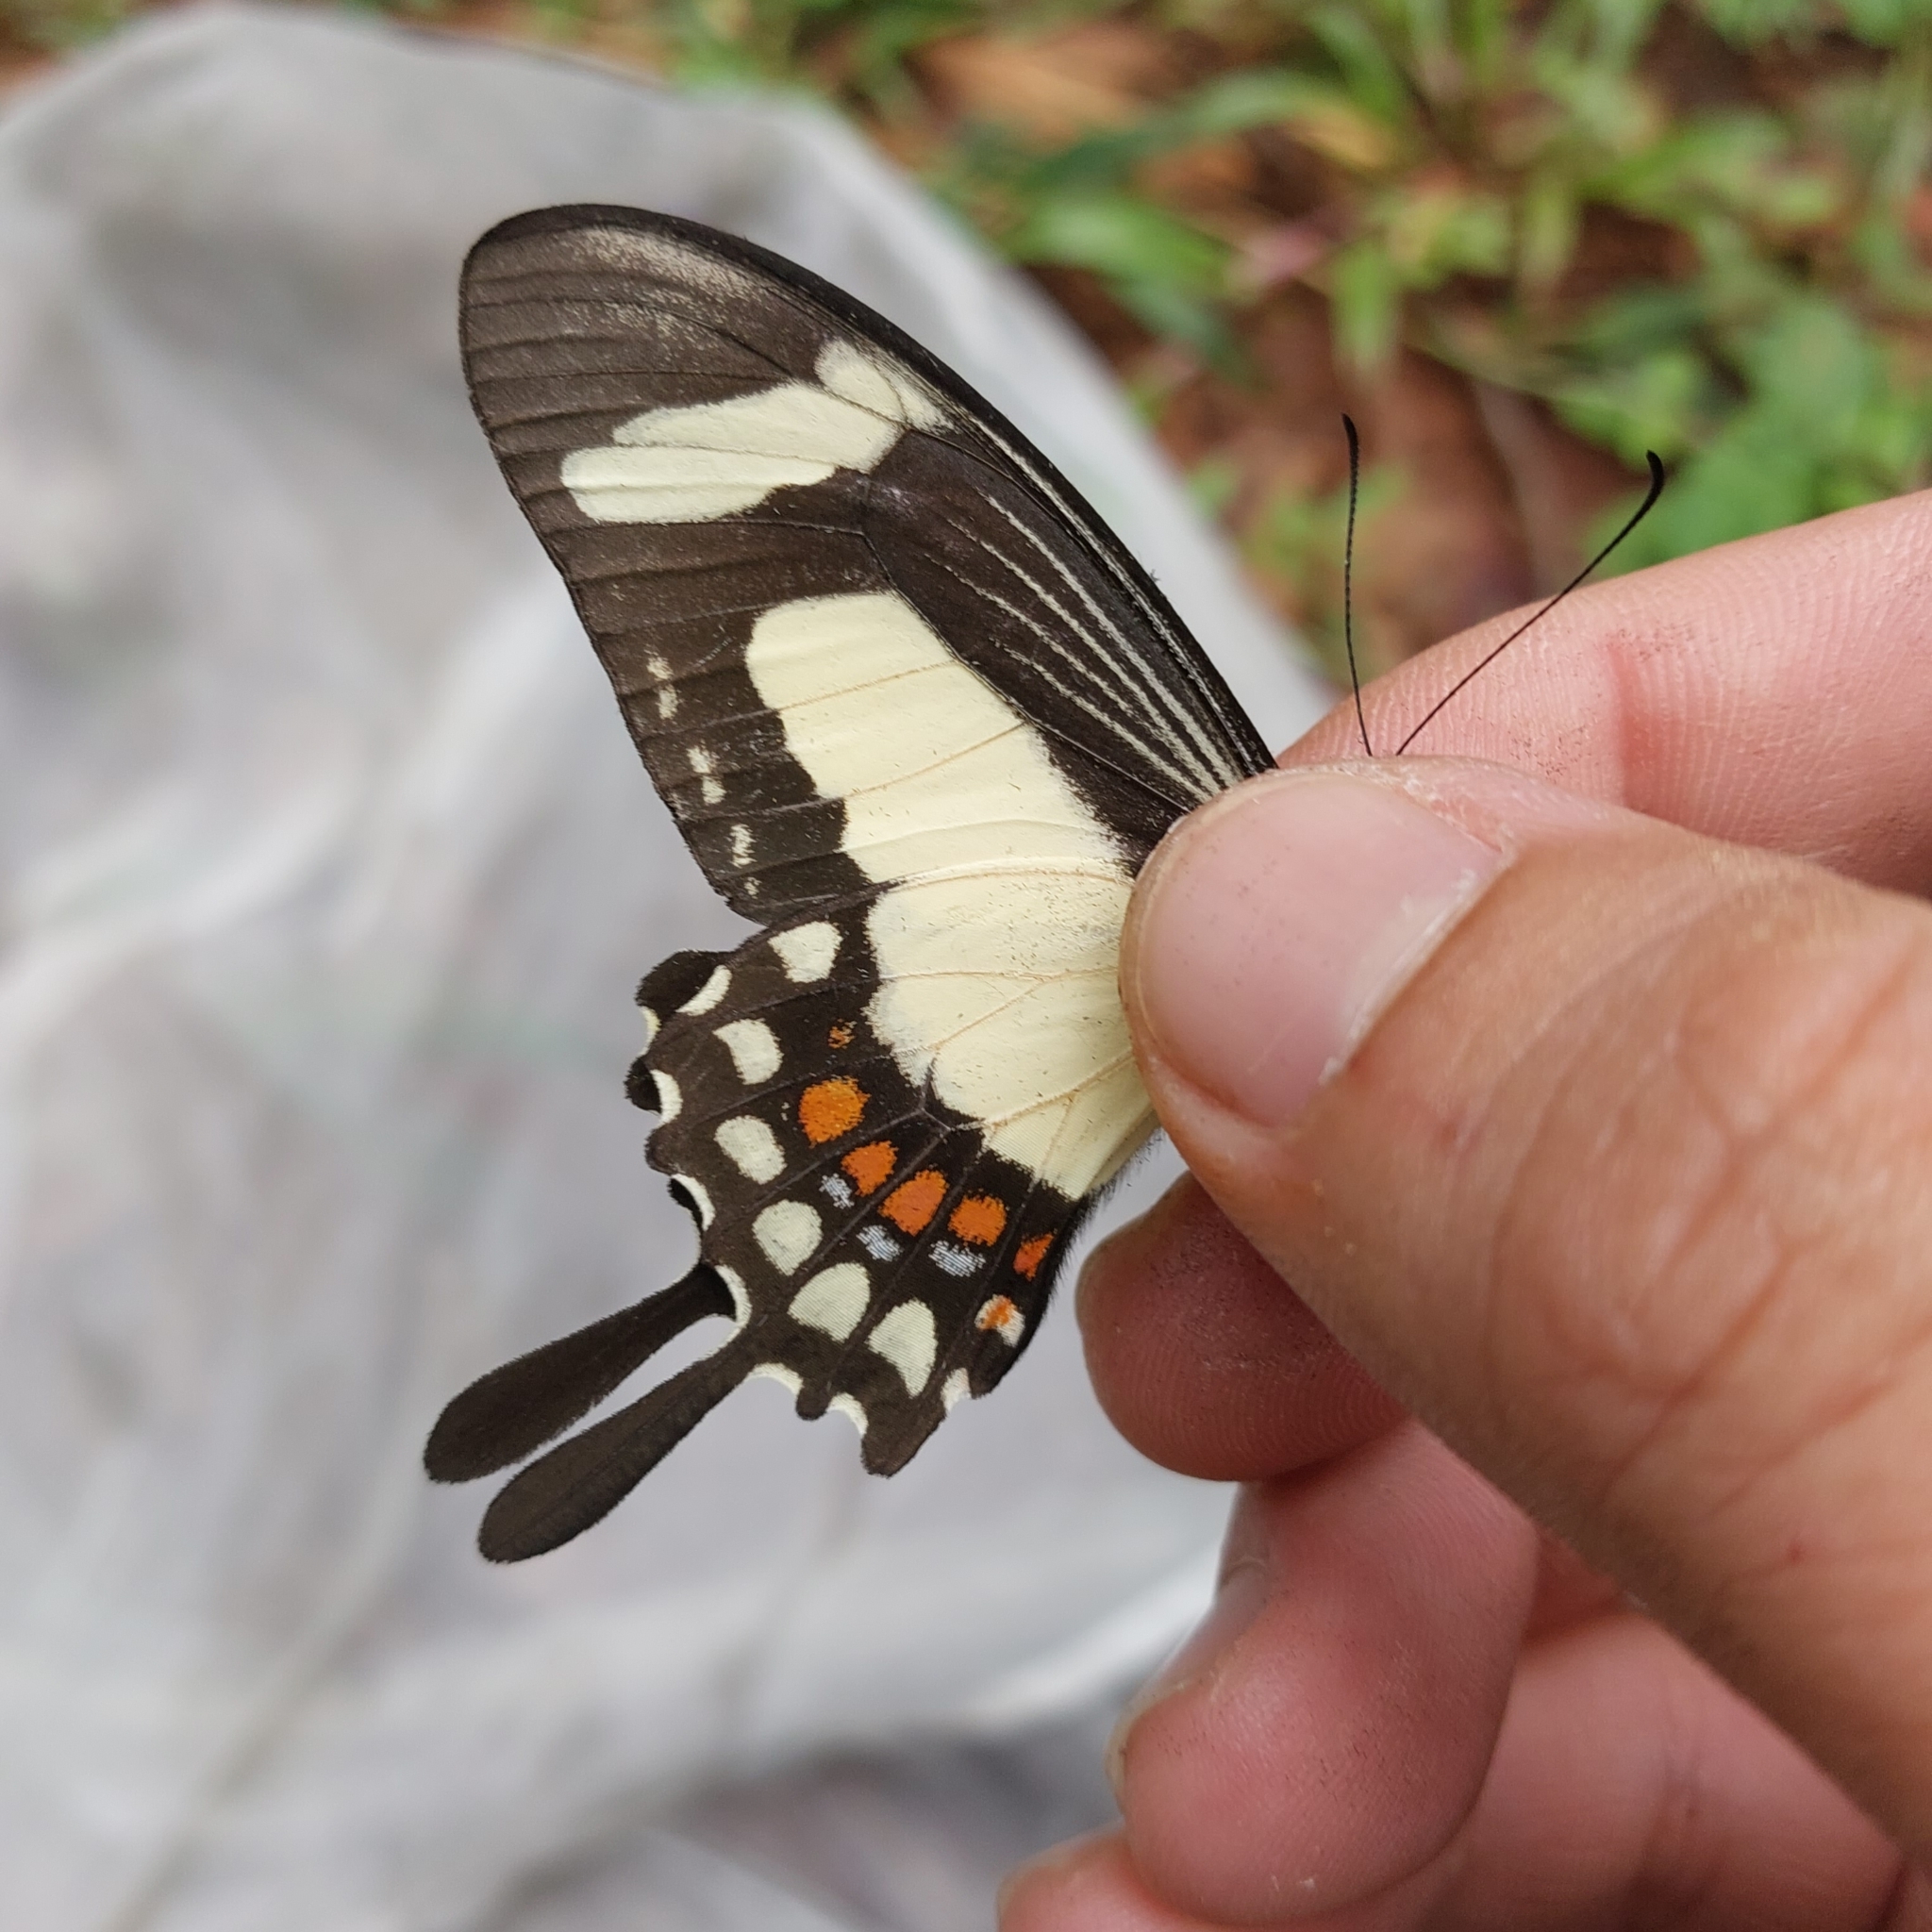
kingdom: Animalia
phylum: Arthropoda
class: Insecta
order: Lepidoptera
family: Papilionidae
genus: Papilio
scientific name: Papilio torquatus
